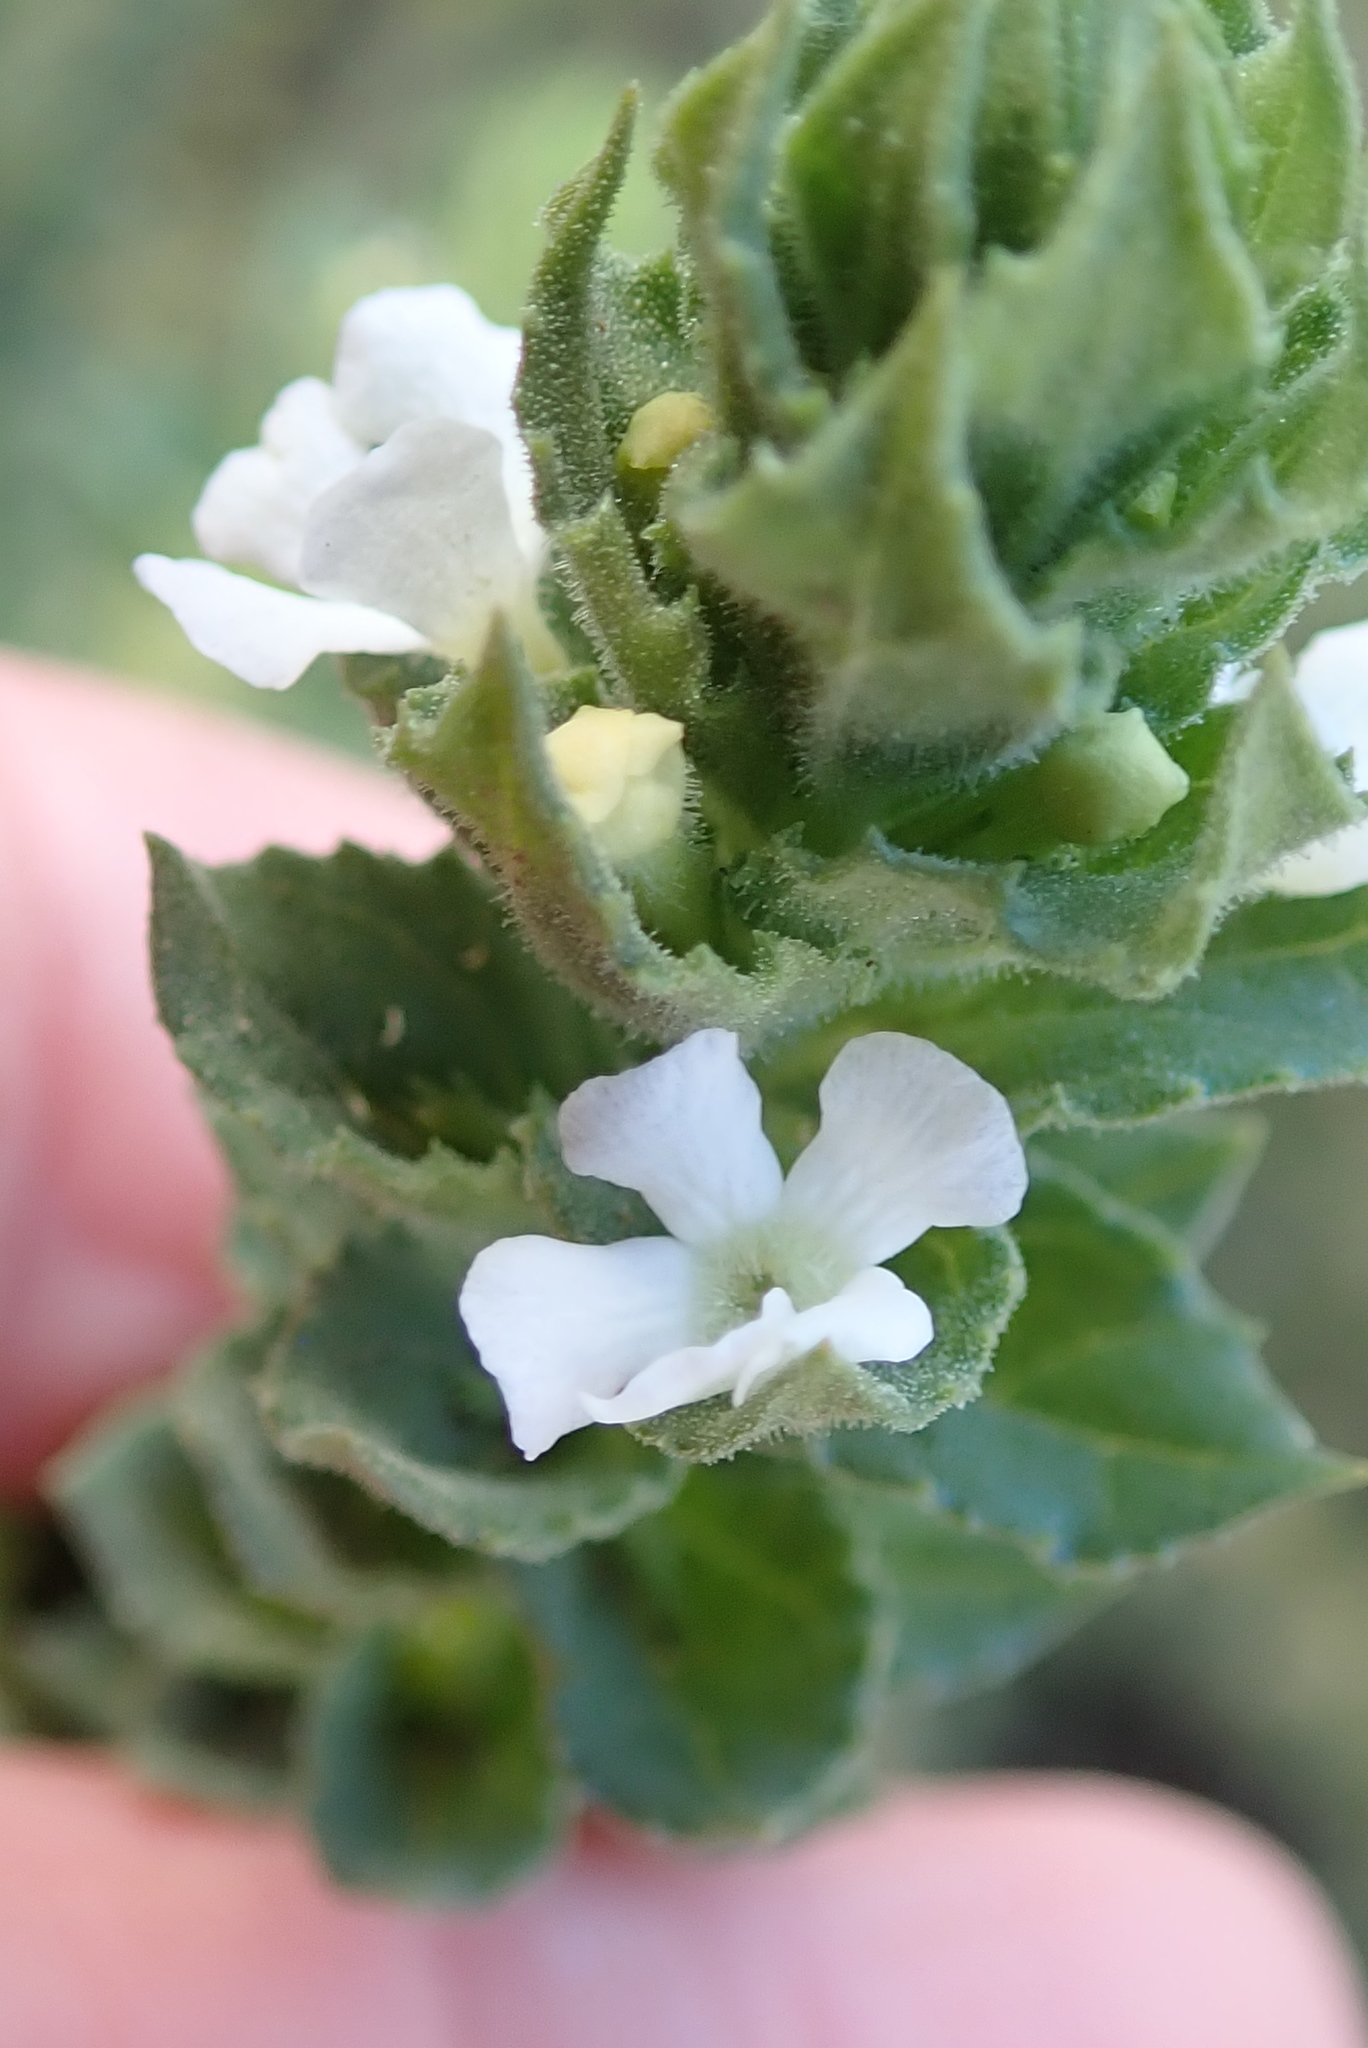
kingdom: Plantae
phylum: Tracheophyta
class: Magnoliopsida
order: Lamiales
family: Scrophulariaceae
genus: Oftia
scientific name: Oftia africana
